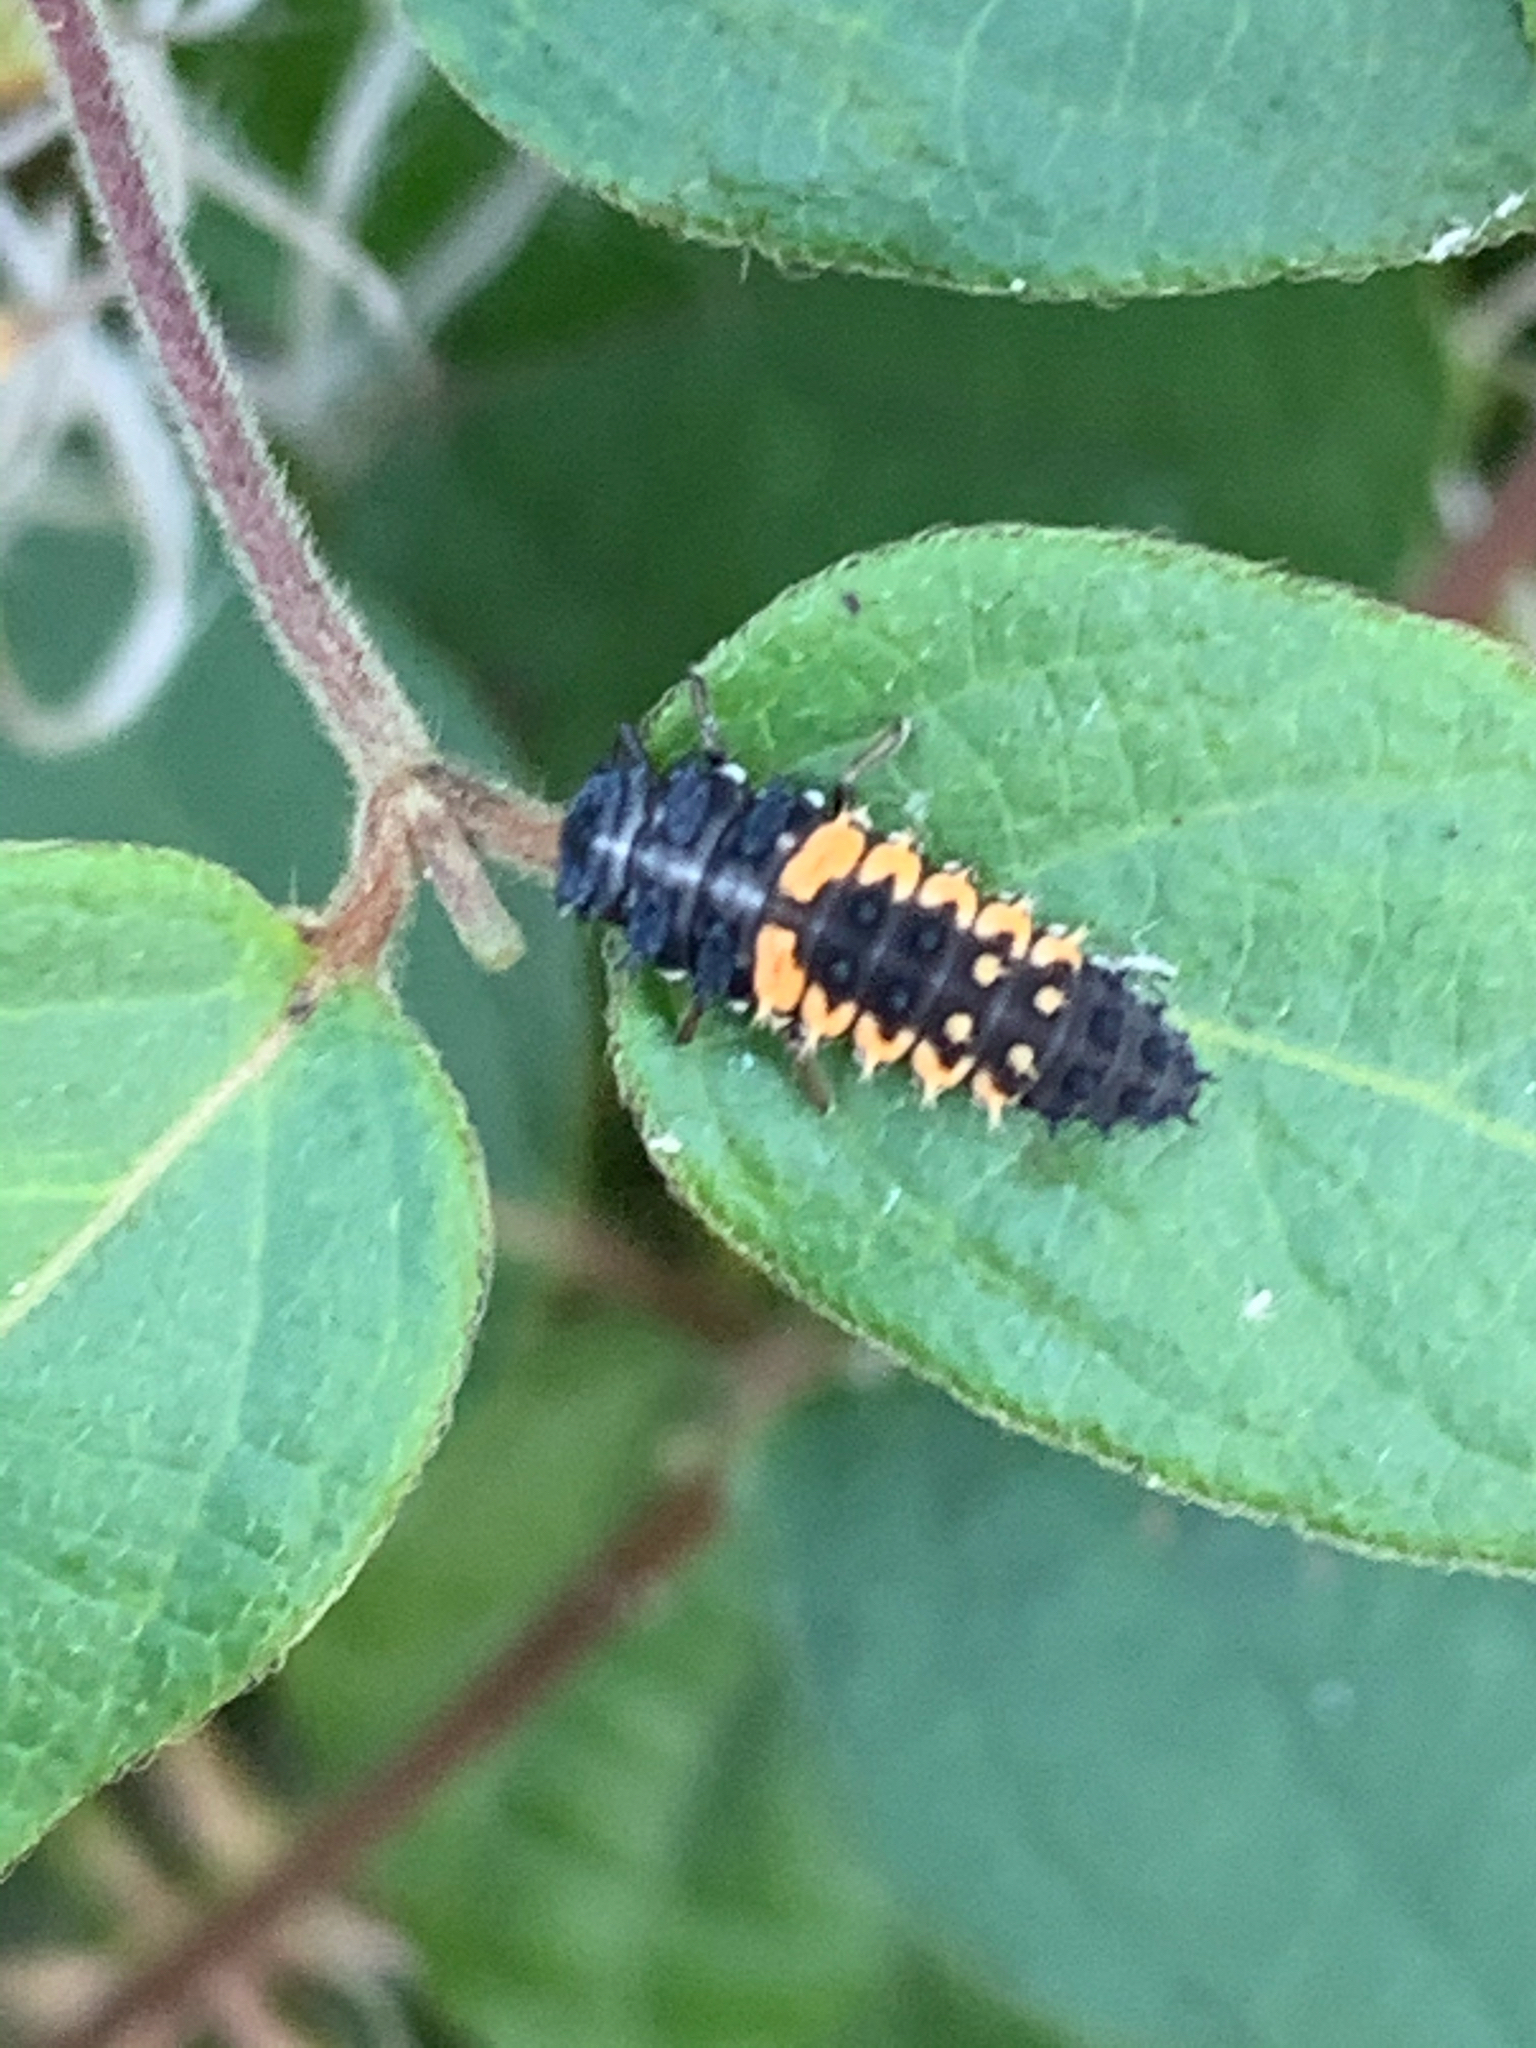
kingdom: Animalia
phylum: Arthropoda
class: Insecta
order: Coleoptera
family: Coccinellidae
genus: Harmonia
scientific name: Harmonia axyridis
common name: Harlequin ladybird
